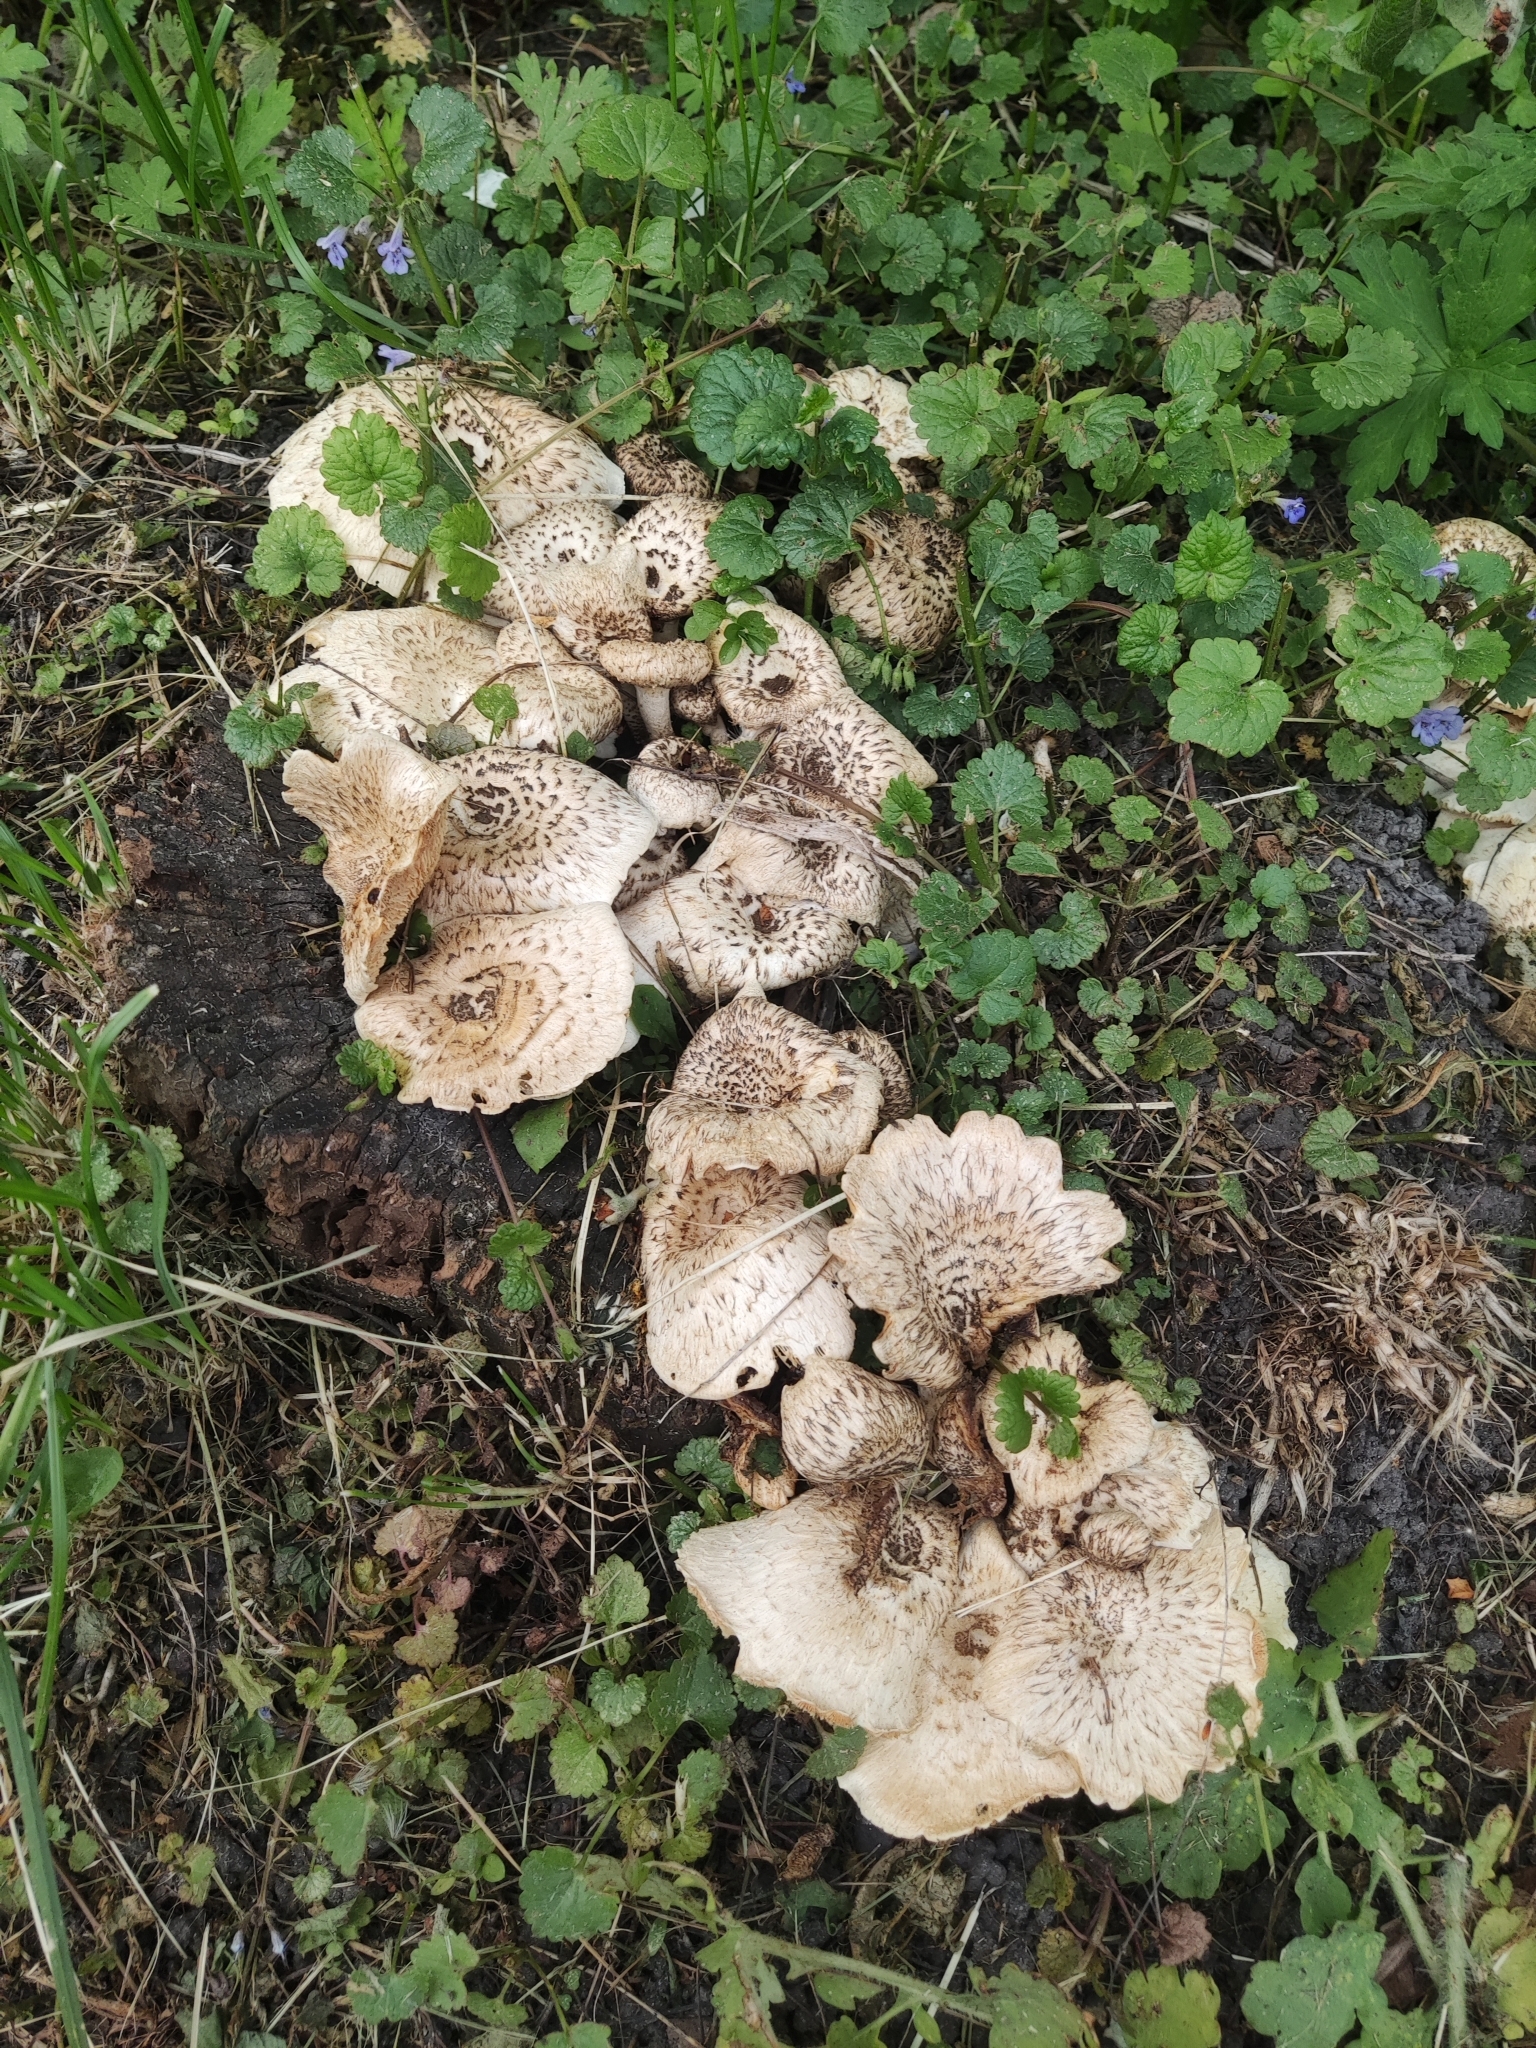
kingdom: Fungi
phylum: Basidiomycota
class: Agaricomycetes
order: Polyporales
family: Polyporaceae
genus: Cerioporus
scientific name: Cerioporus squamosus
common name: Dryad's saddle
